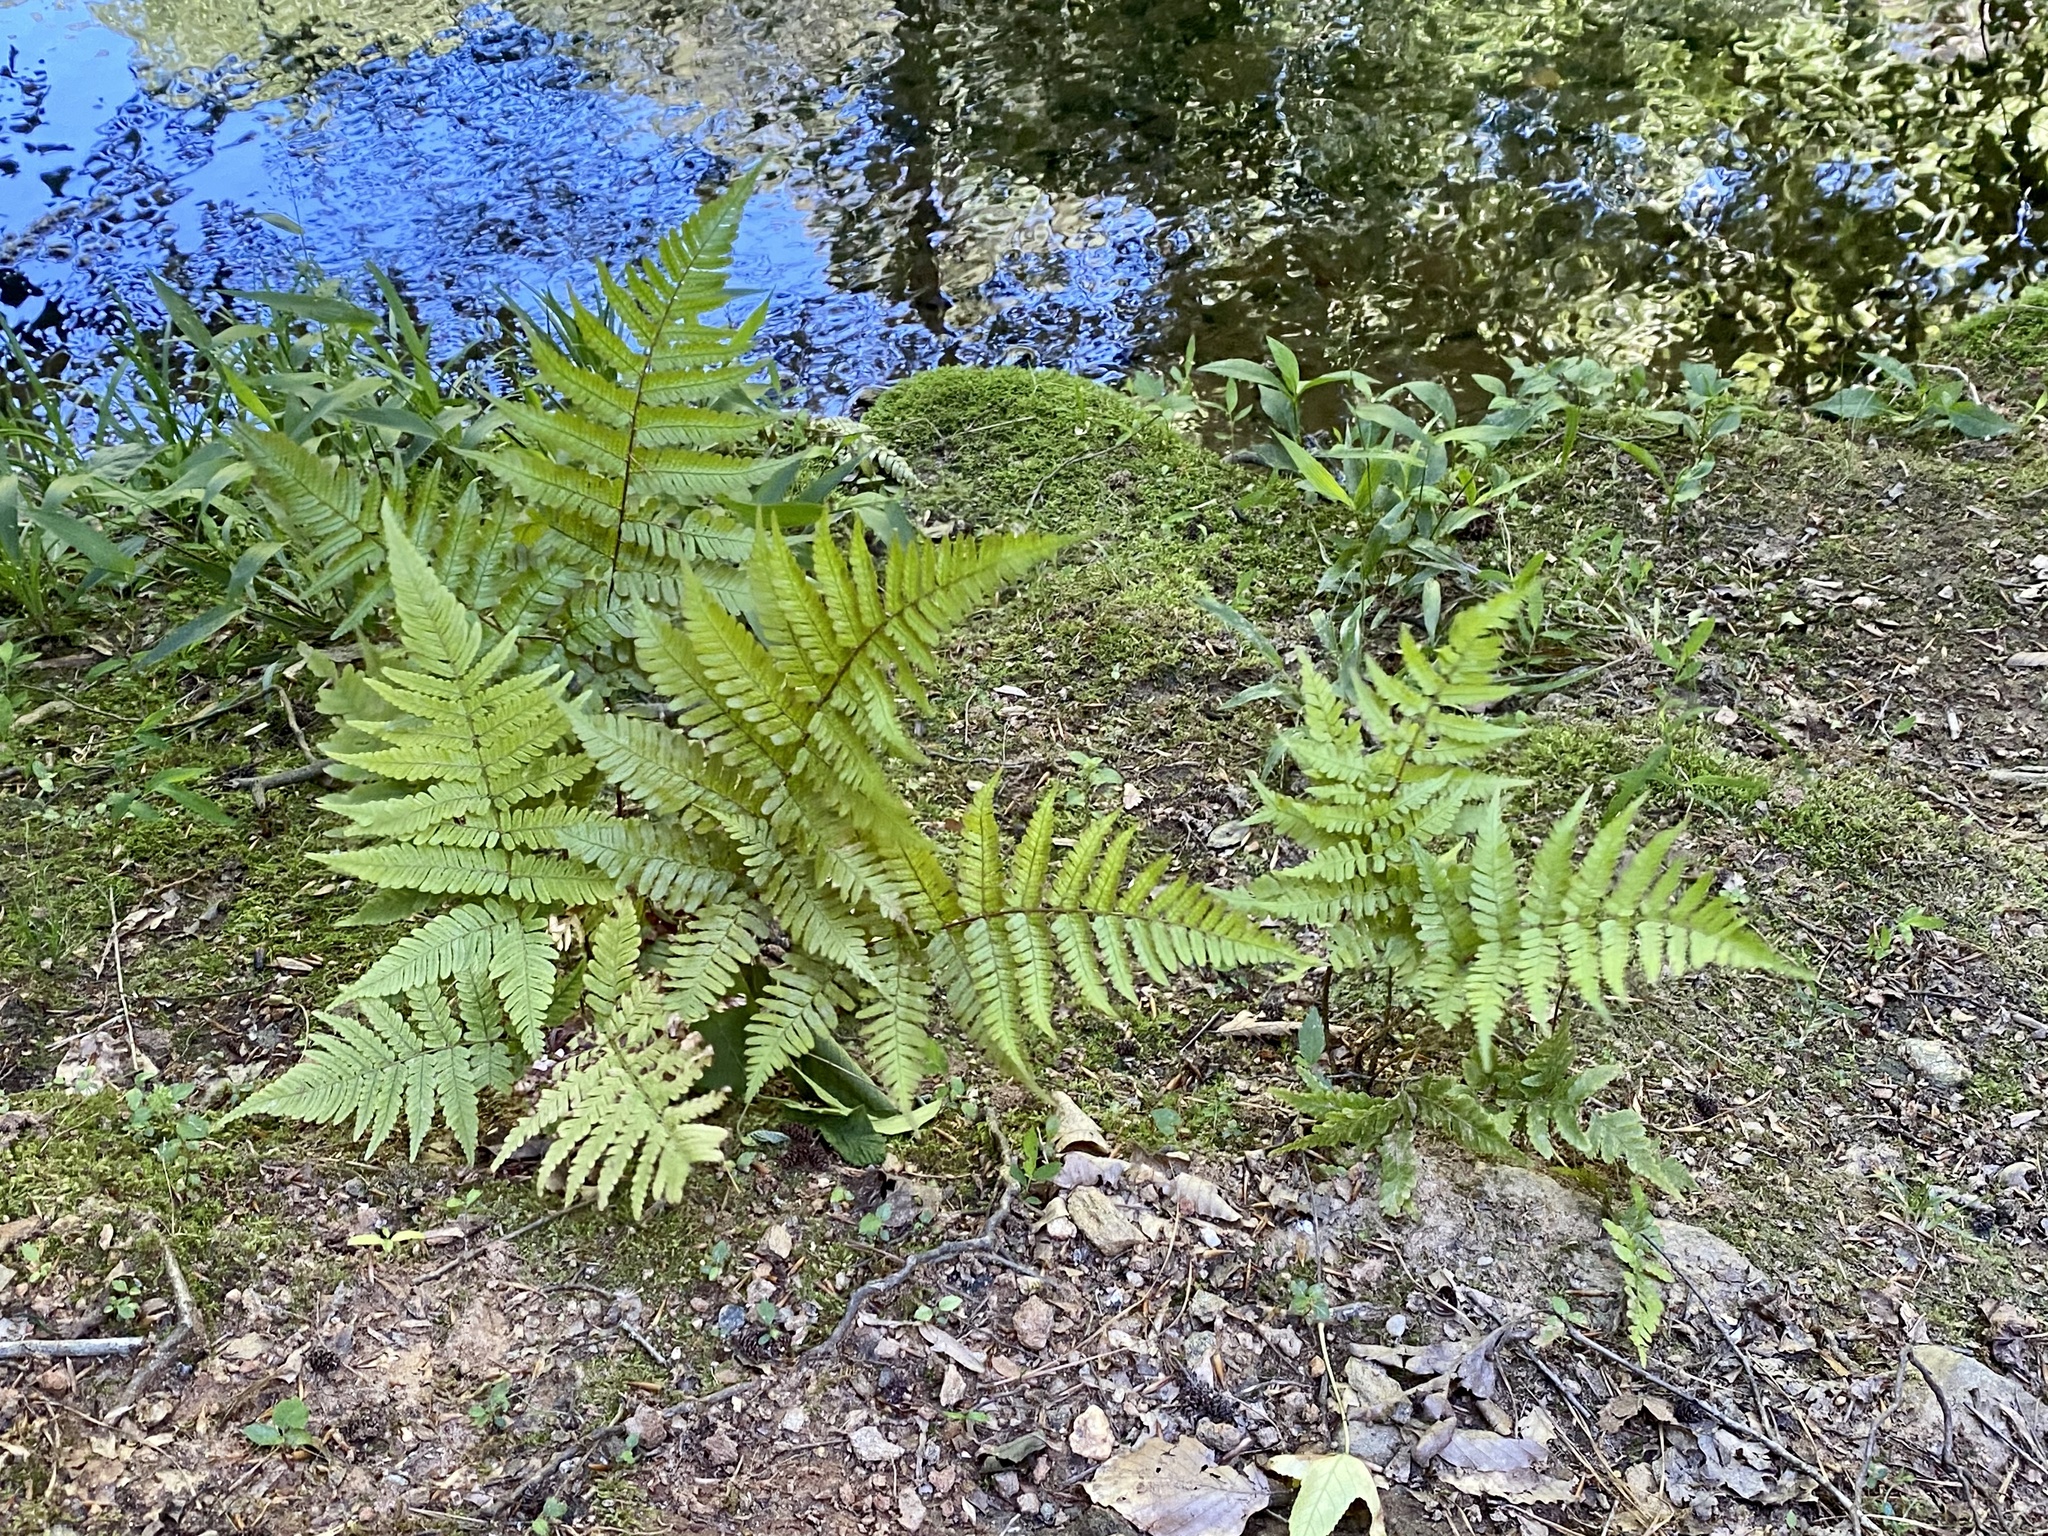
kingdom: Plantae
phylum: Tracheophyta
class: Polypodiopsida
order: Polypodiales
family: Dryopteridaceae
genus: Dryopteris
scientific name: Dryopteris erythrosora
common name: Autumn fern
